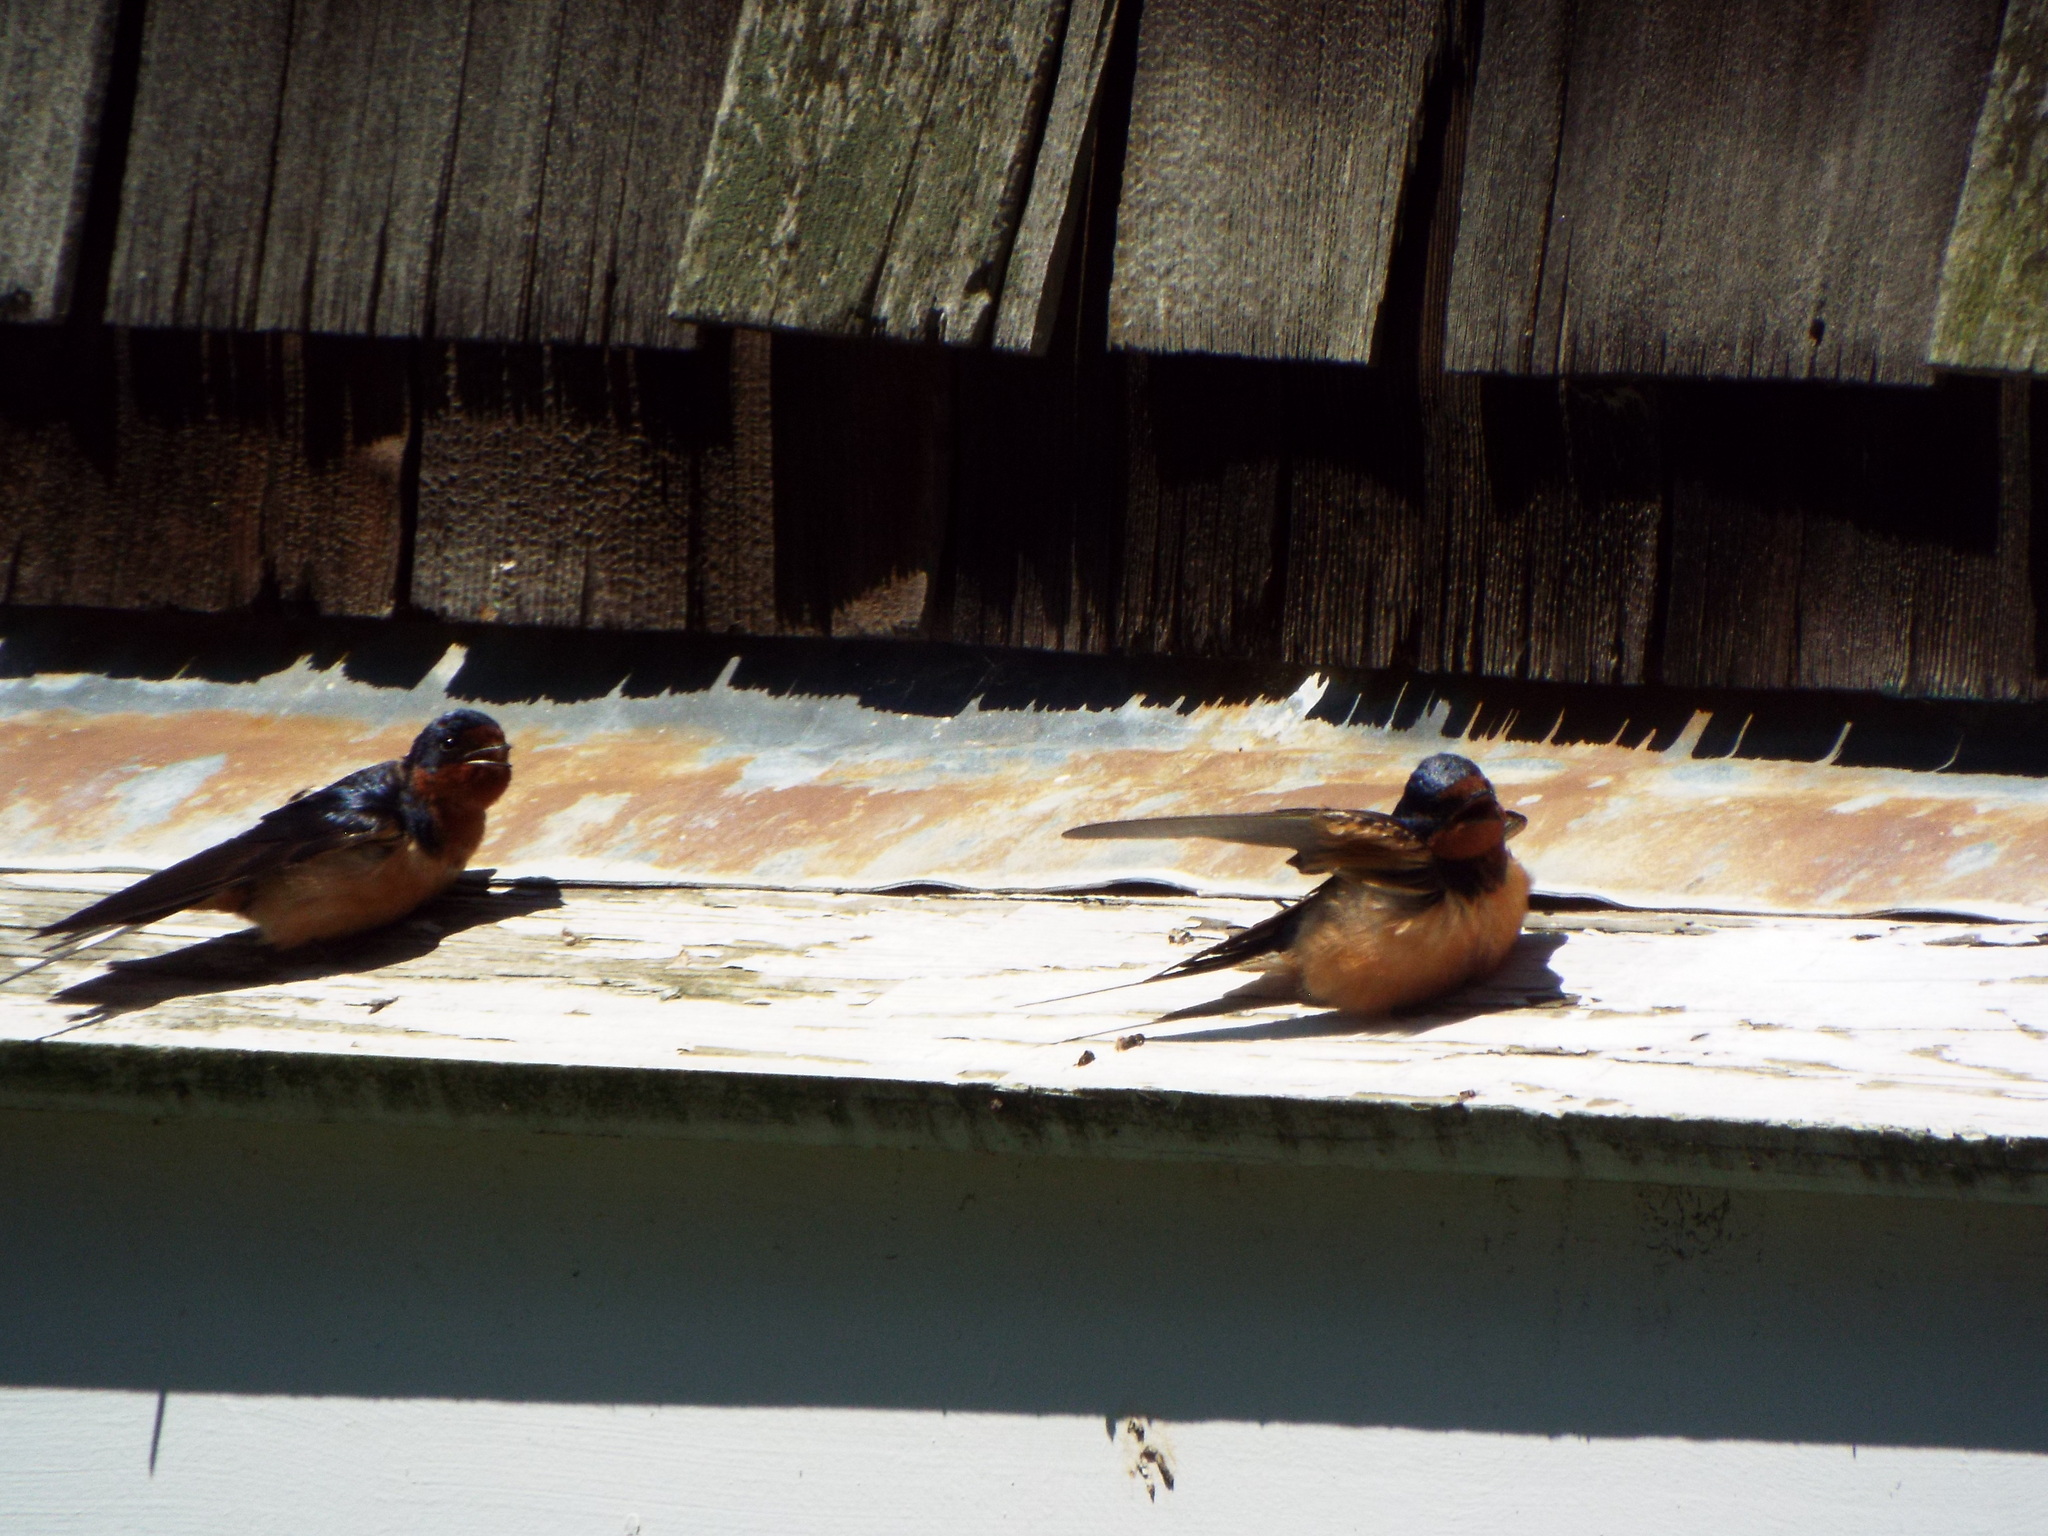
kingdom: Animalia
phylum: Chordata
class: Aves
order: Passeriformes
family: Hirundinidae
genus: Hirundo
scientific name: Hirundo rustica
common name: Barn swallow
